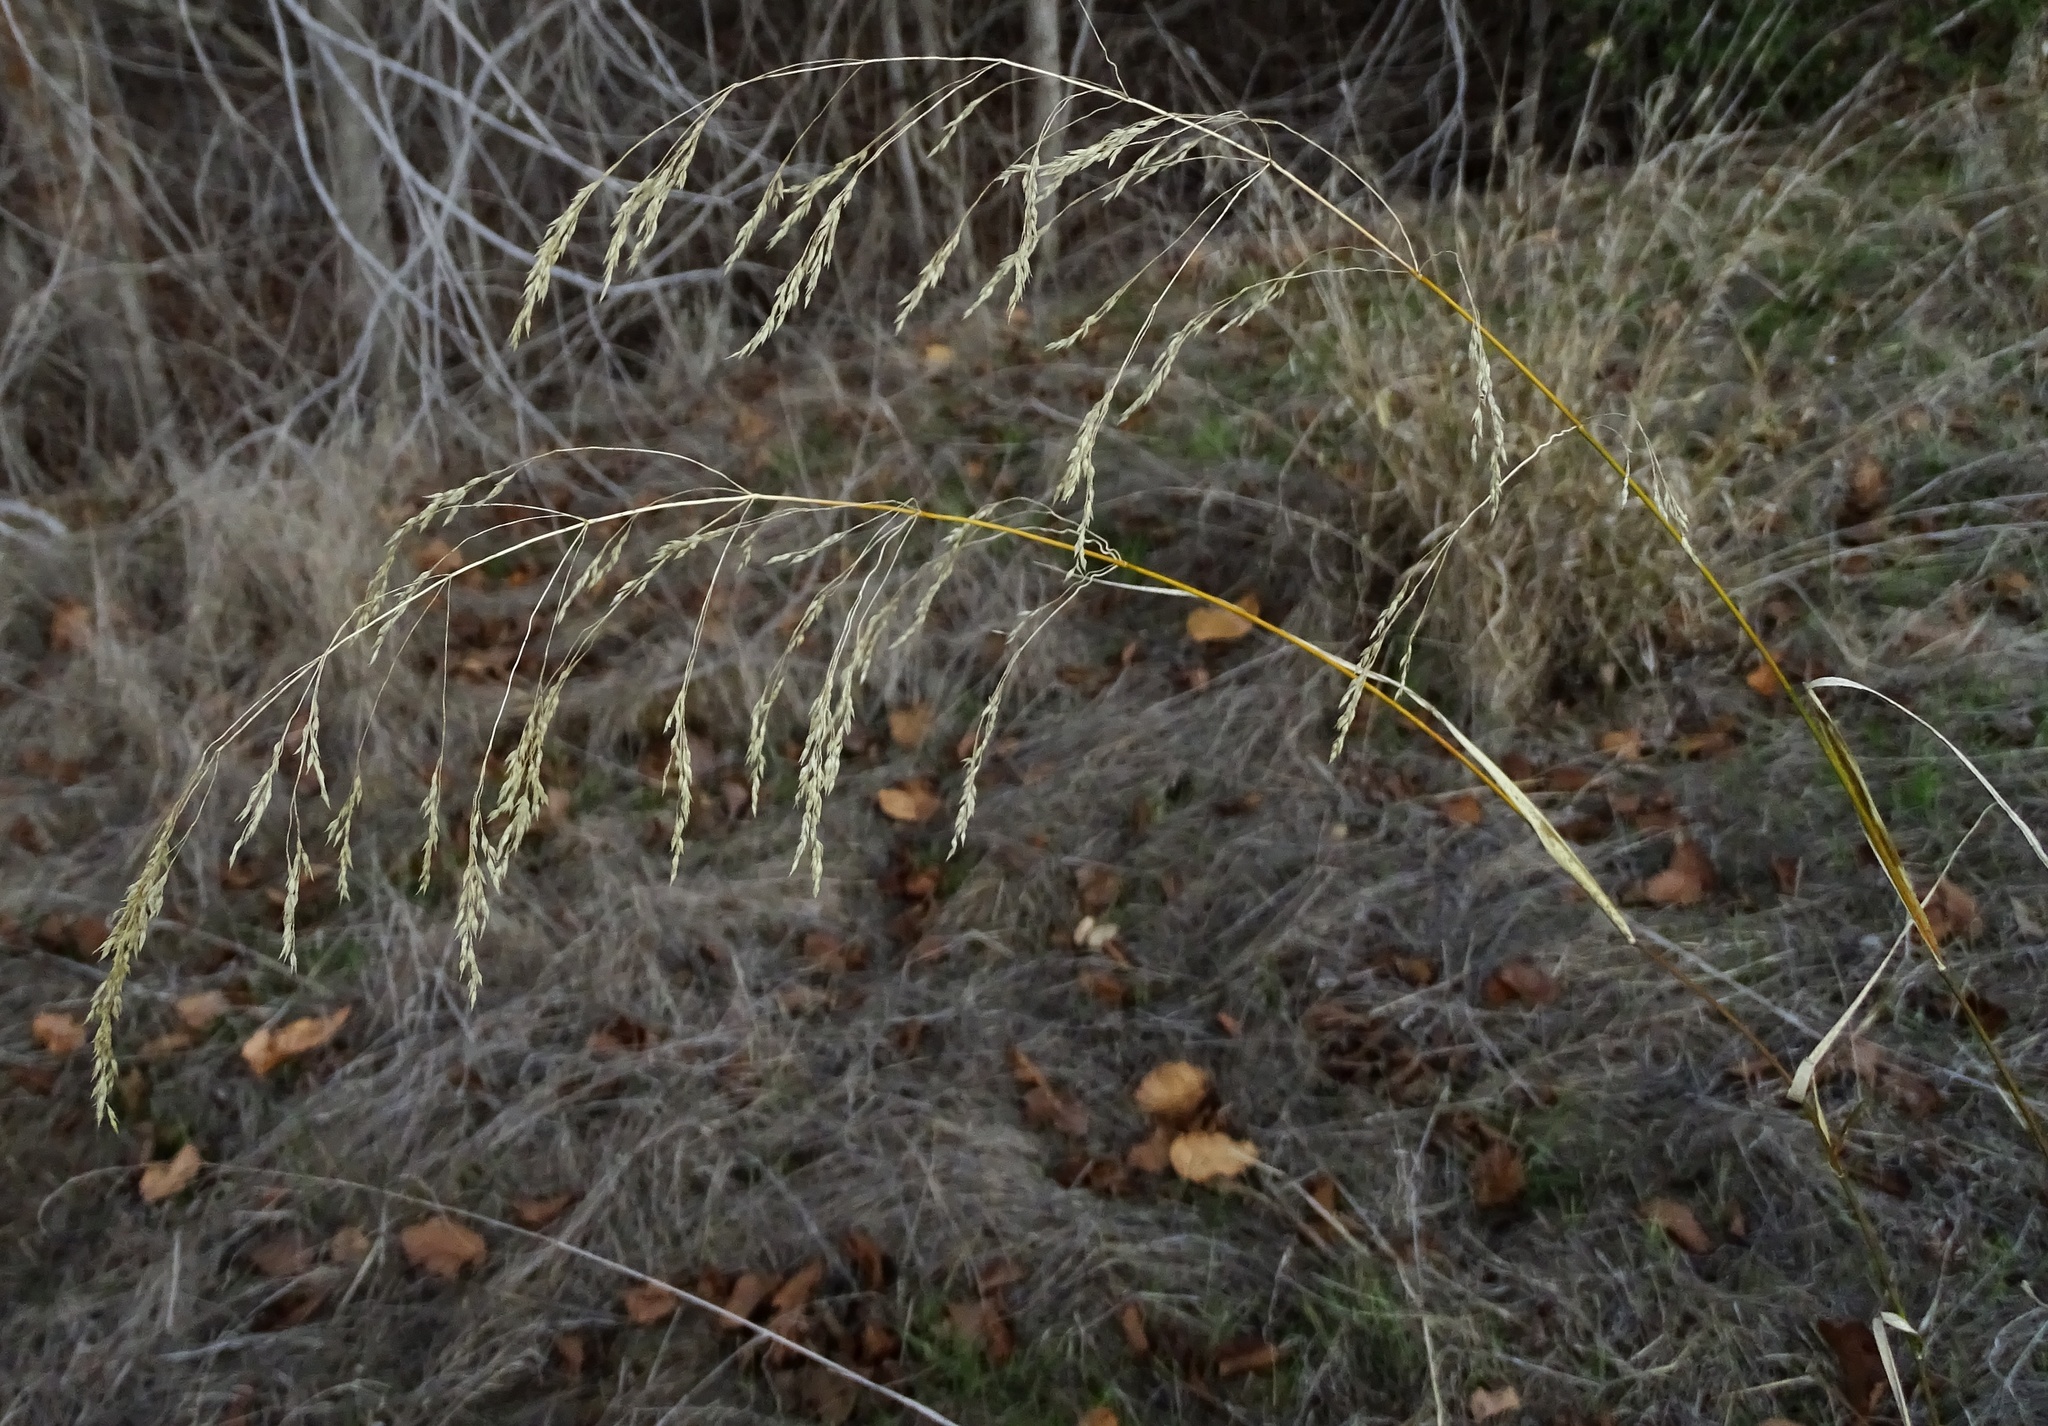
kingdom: Plantae
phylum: Tracheophyta
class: Liliopsida
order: Poales
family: Poaceae
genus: Oloptum
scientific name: Oloptum miliaceum
